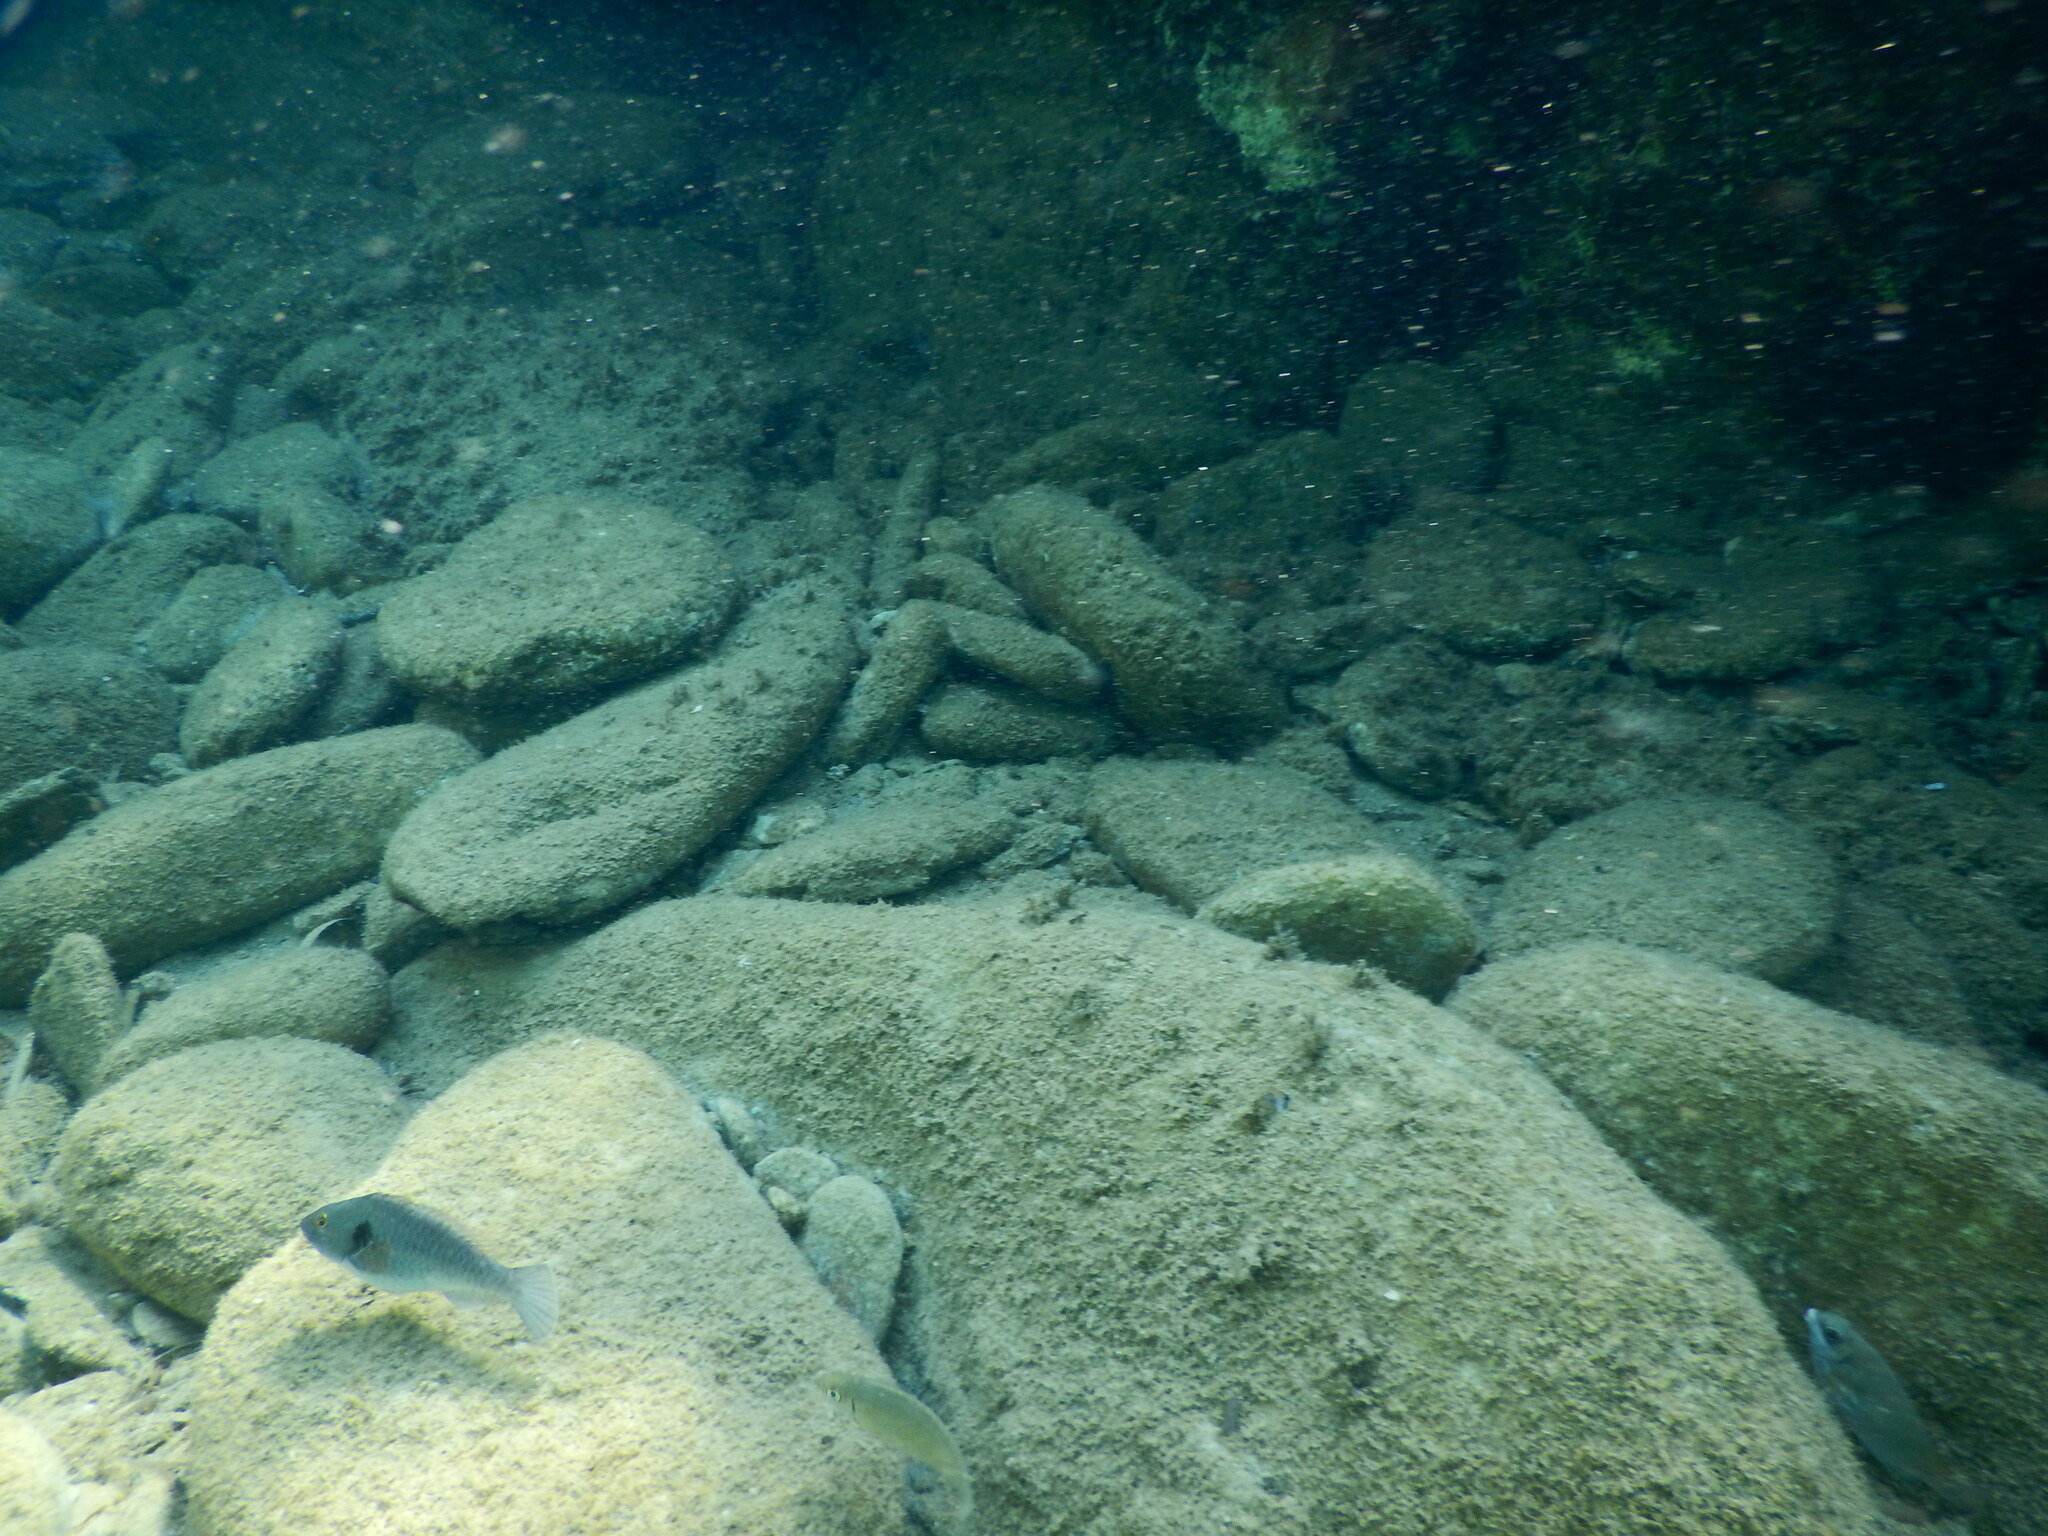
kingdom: Animalia
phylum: Chordata
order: Perciformes
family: Siganidae
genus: Siganus
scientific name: Siganus
